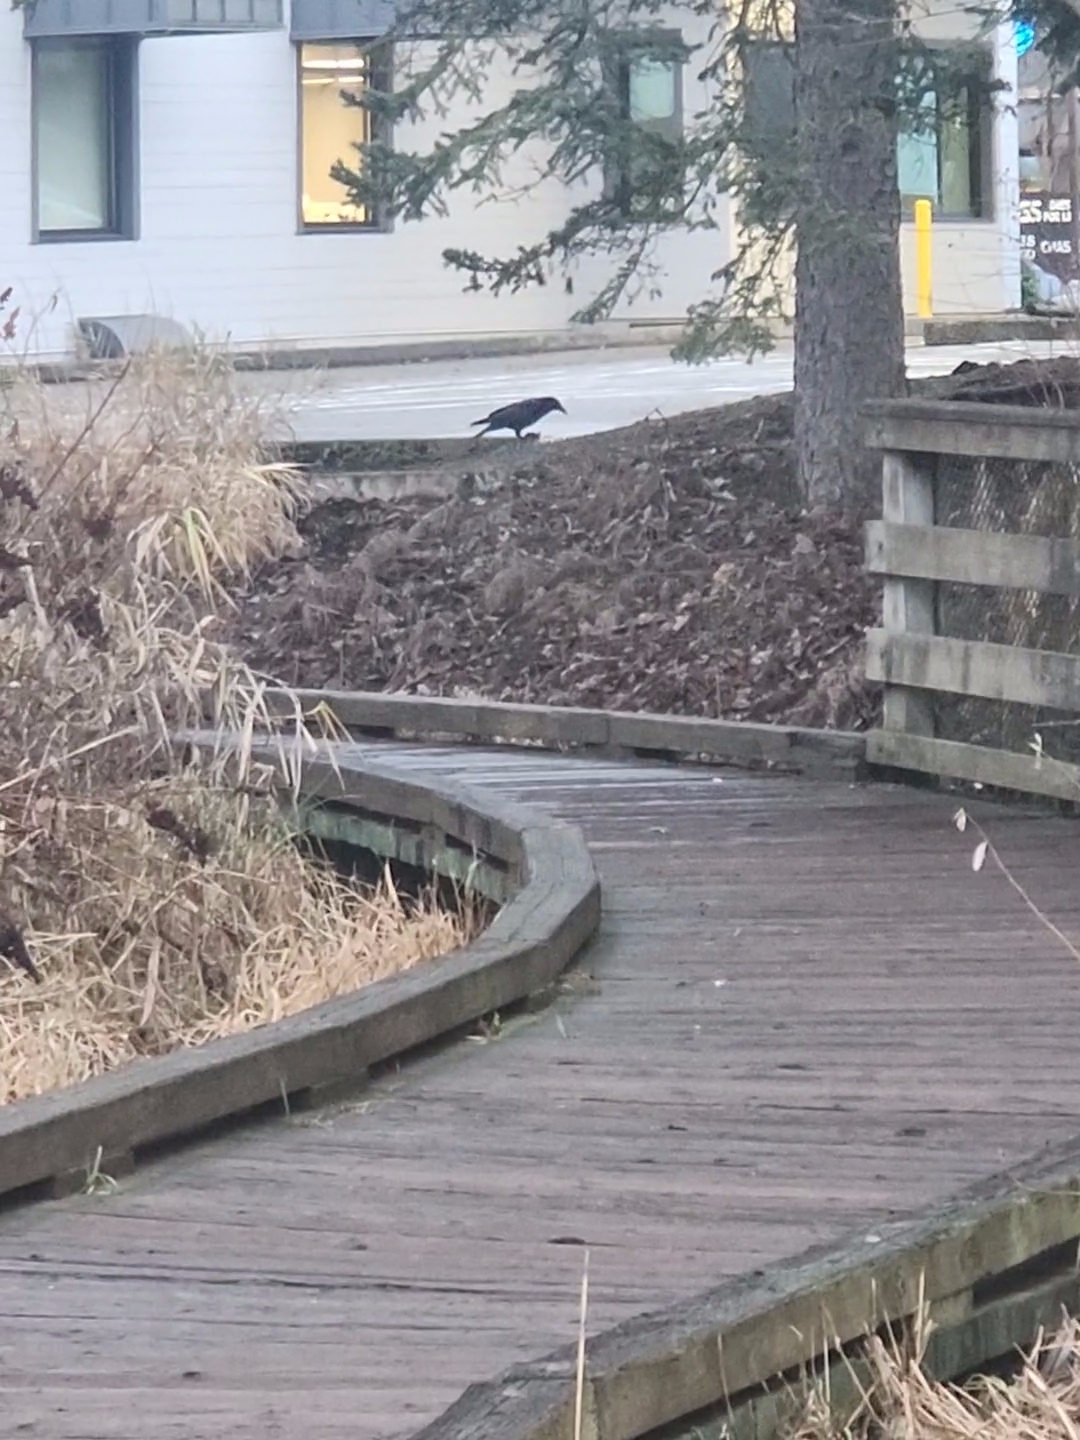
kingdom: Animalia
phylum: Chordata
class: Aves
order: Passeriformes
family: Corvidae
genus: Corvus
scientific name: Corvus brachyrhynchos
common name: American crow
